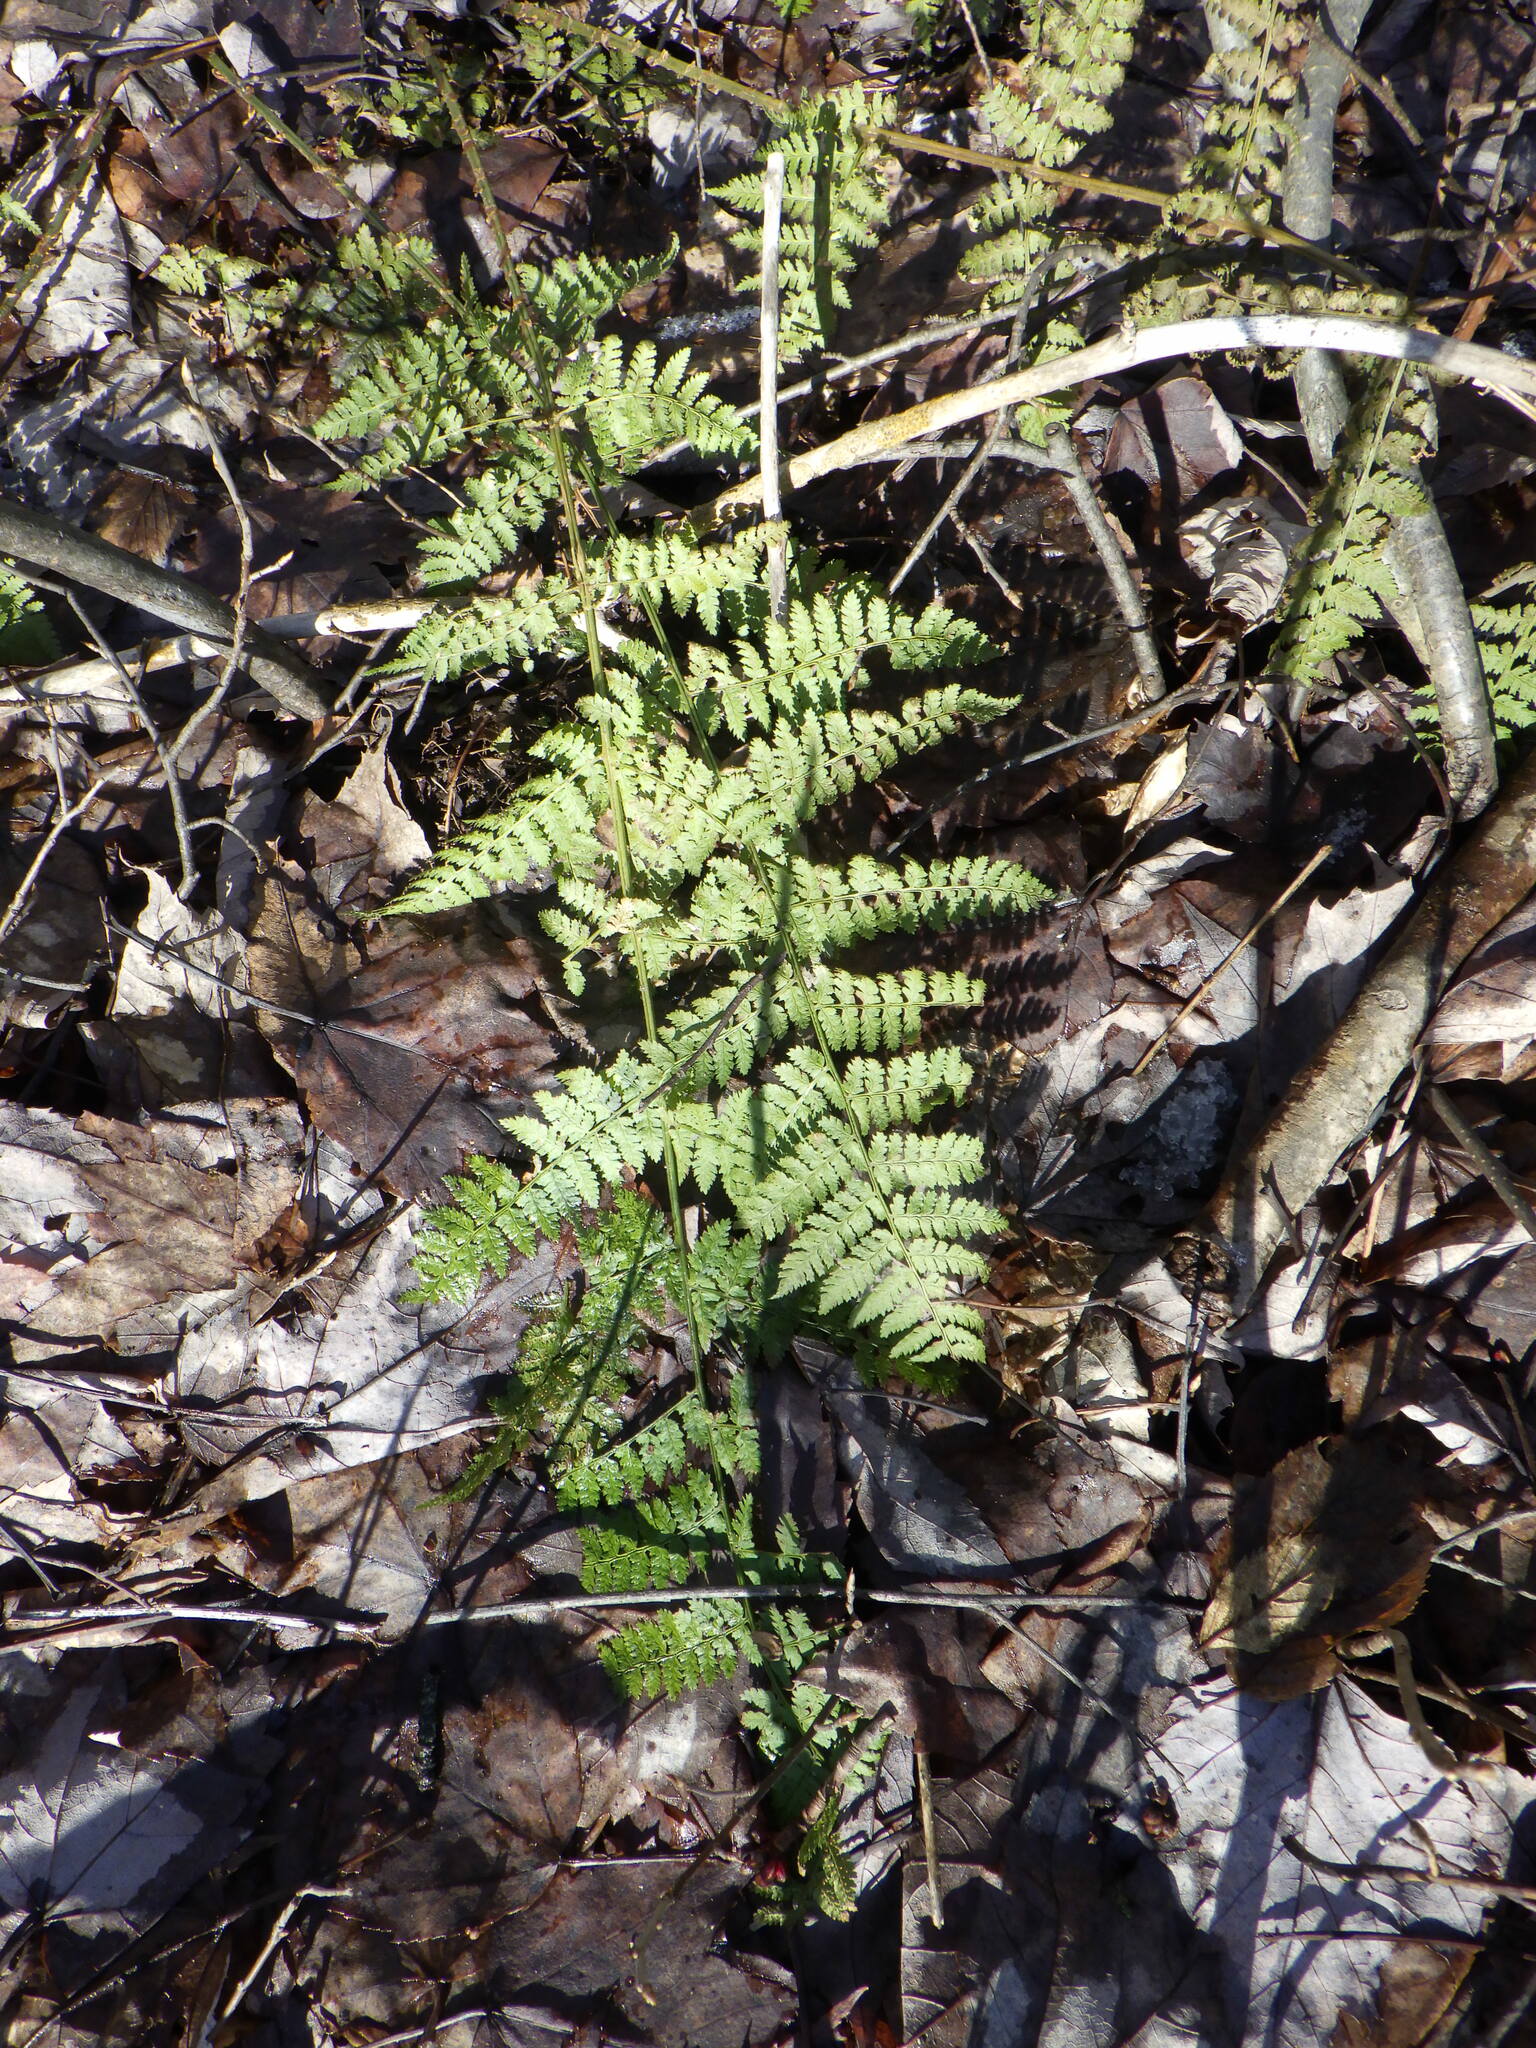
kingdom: Plantae
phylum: Tracheophyta
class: Polypodiopsida
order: Polypodiales
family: Dryopteridaceae
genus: Dryopteris
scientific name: Dryopteris intermedia
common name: Evergreen wood fern
